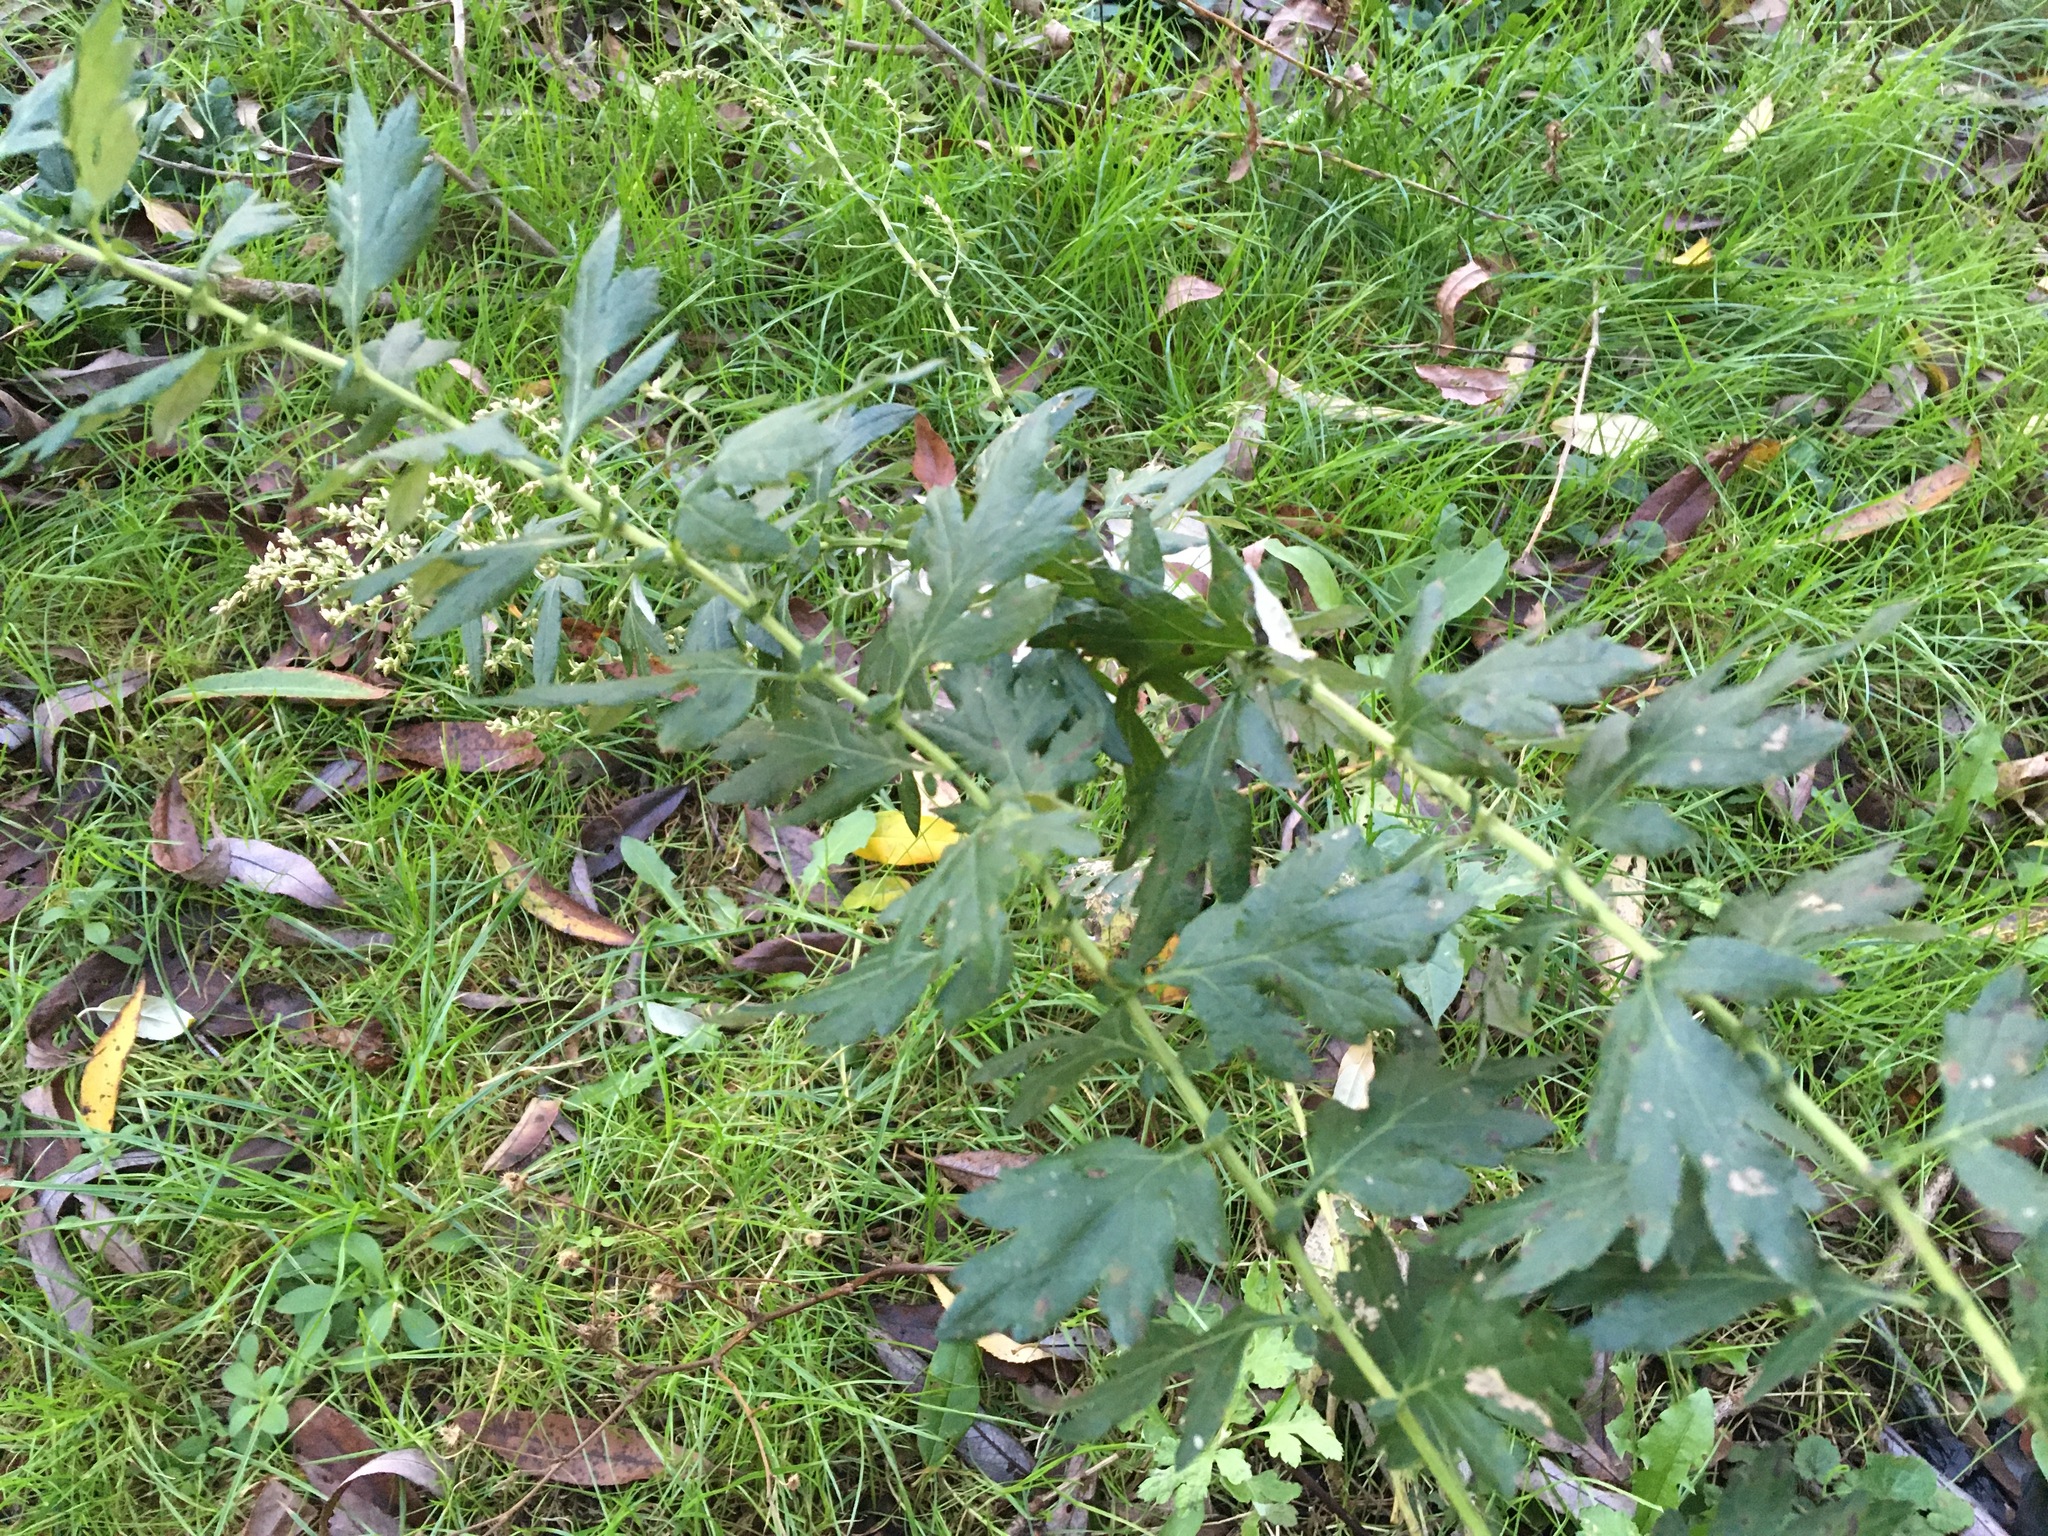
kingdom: Plantae
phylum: Tracheophyta
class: Magnoliopsida
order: Asterales
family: Asteraceae
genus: Artemisia
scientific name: Artemisia vulgaris
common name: Mugwort
